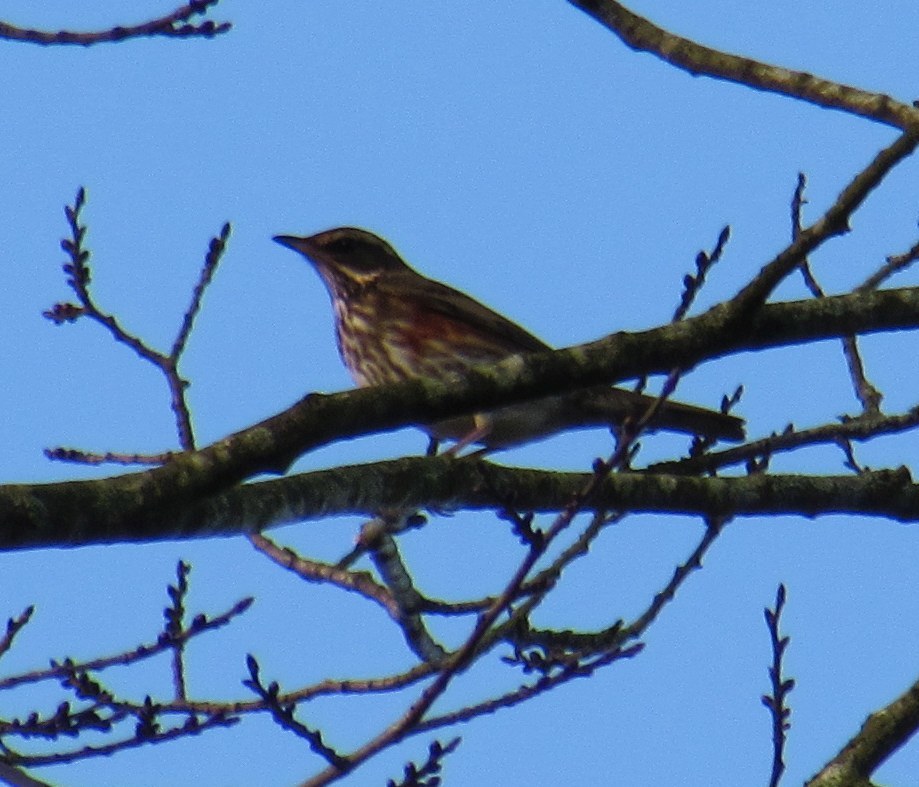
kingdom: Animalia
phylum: Chordata
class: Aves
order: Passeriformes
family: Turdidae
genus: Turdus
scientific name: Turdus iliacus
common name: Redwing
